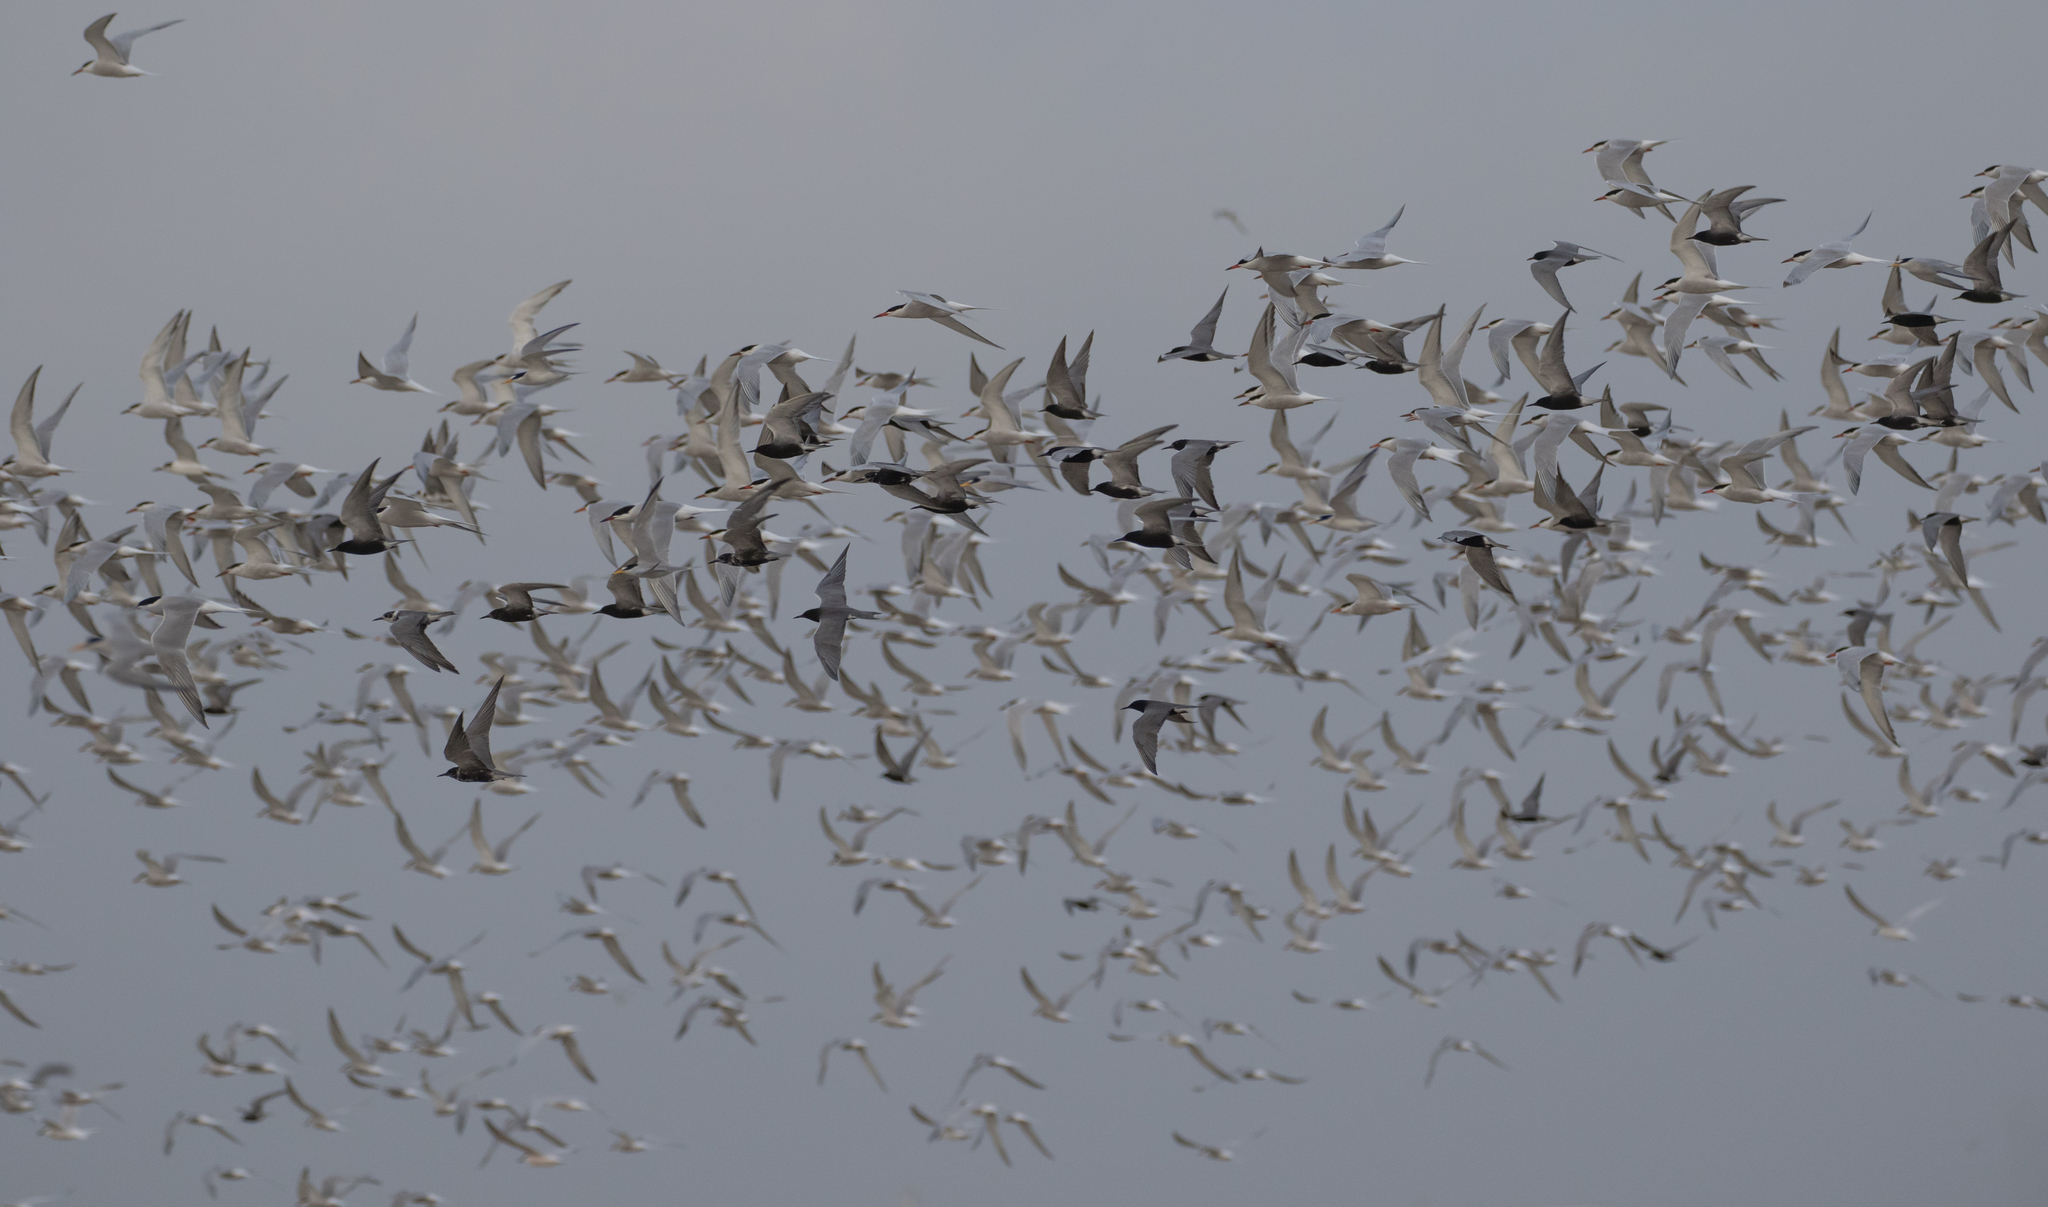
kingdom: Animalia
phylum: Chordata
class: Aves
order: Charadriiformes
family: Laridae
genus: Chlidonias
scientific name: Chlidonias niger
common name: Black tern
